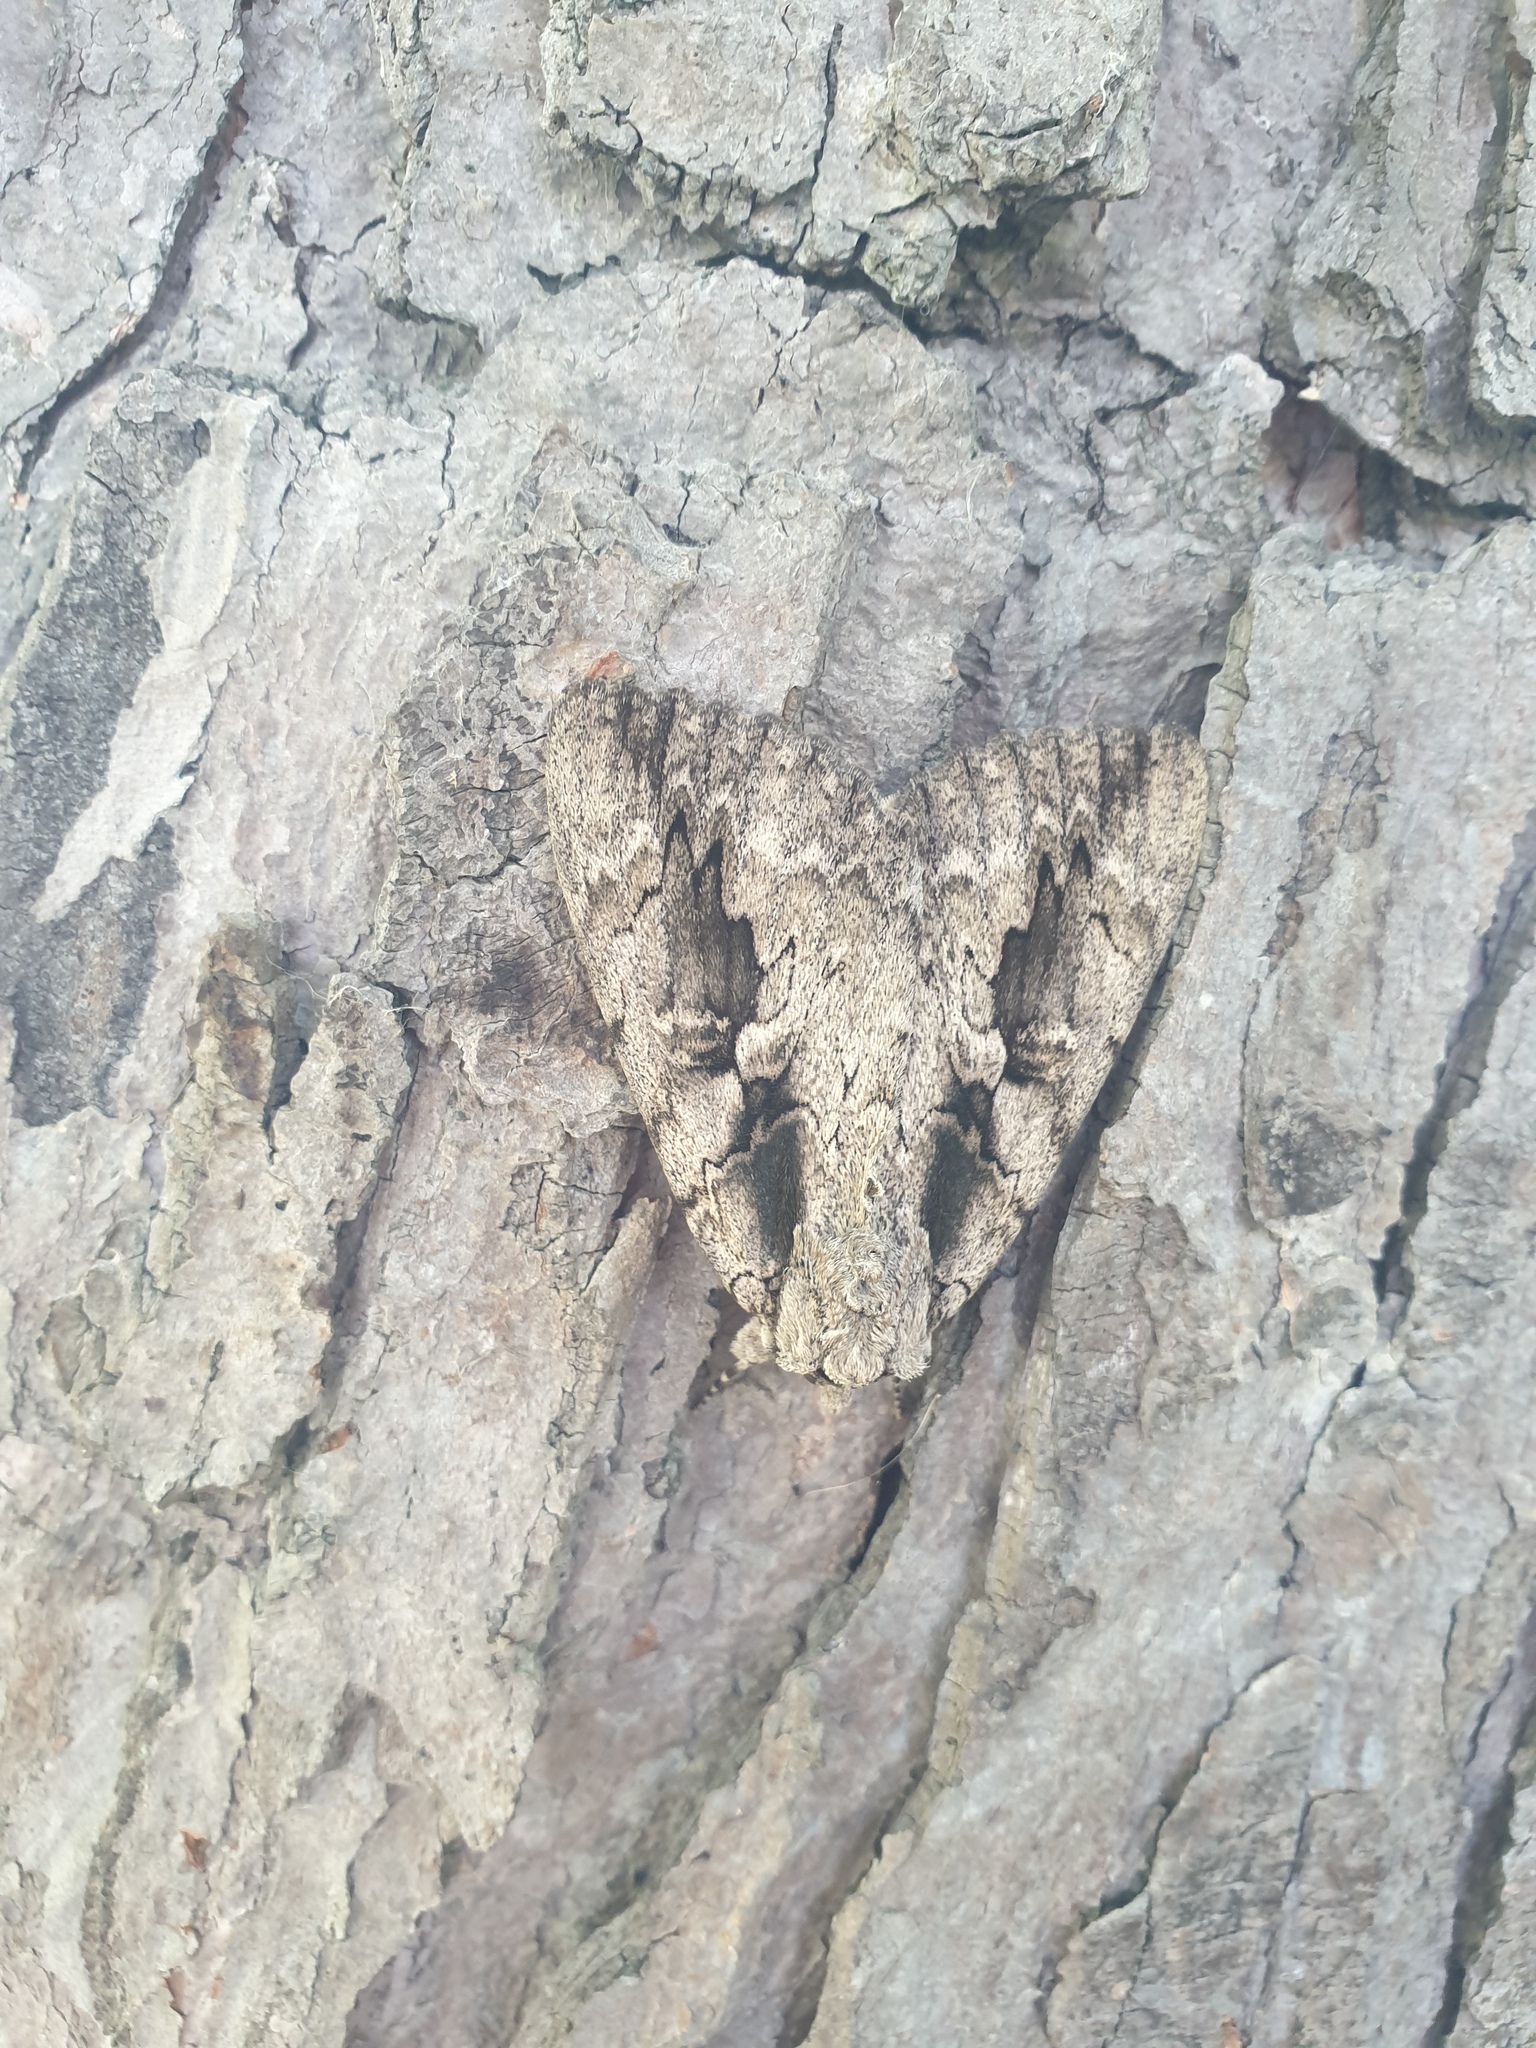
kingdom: Animalia
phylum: Arthropoda
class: Insecta
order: Lepidoptera
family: Erebidae
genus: Catocala
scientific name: Catocala amatrix
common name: Sweetheart underwing
